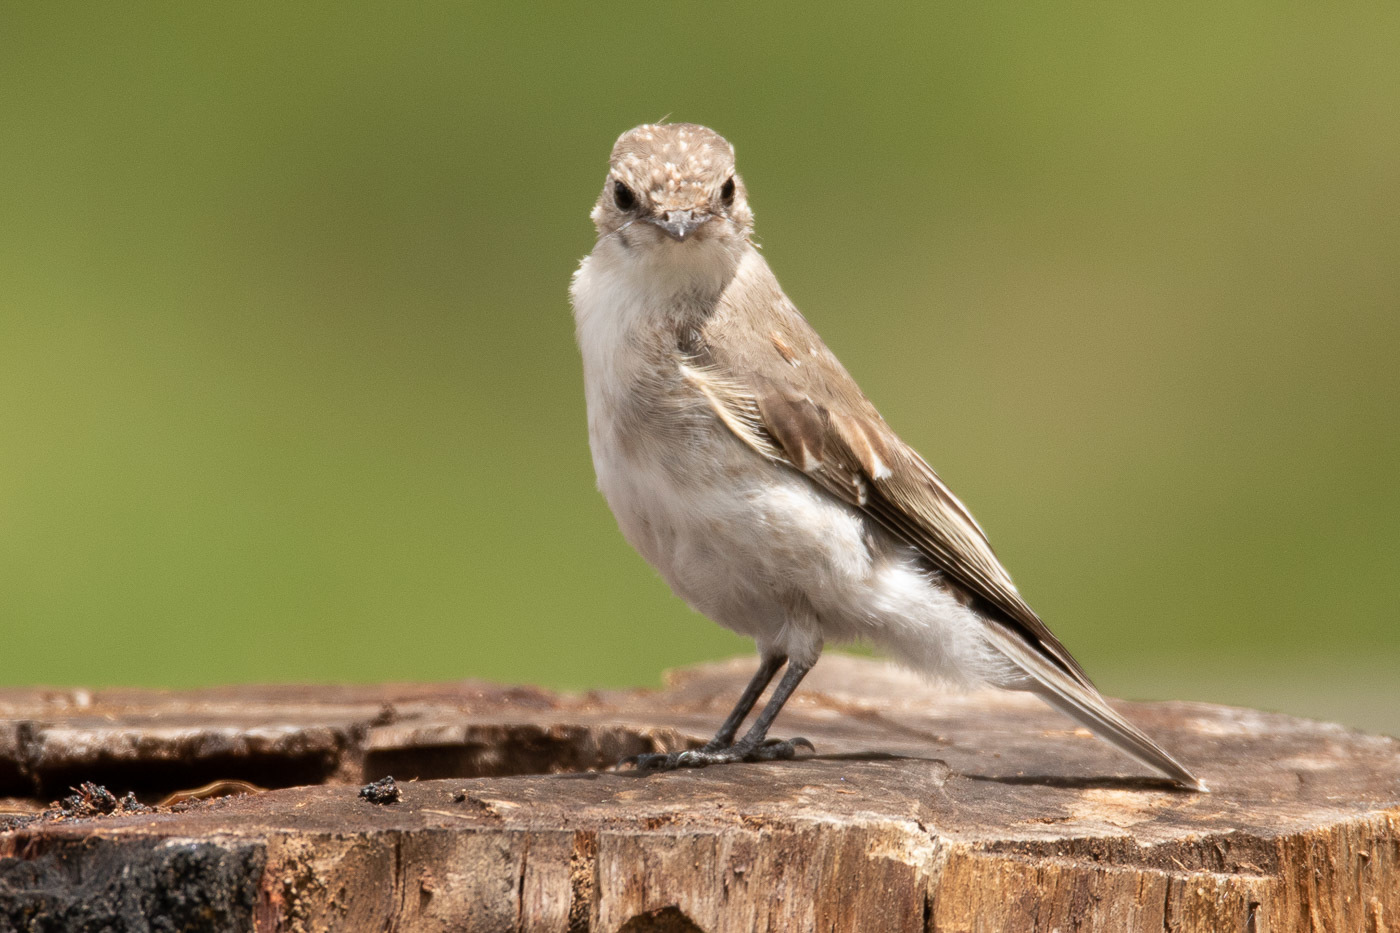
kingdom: Animalia
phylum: Chordata
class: Aves
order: Passeriformes
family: Petroicidae
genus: Microeca
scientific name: Microeca fascinans
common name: Jacky winter
